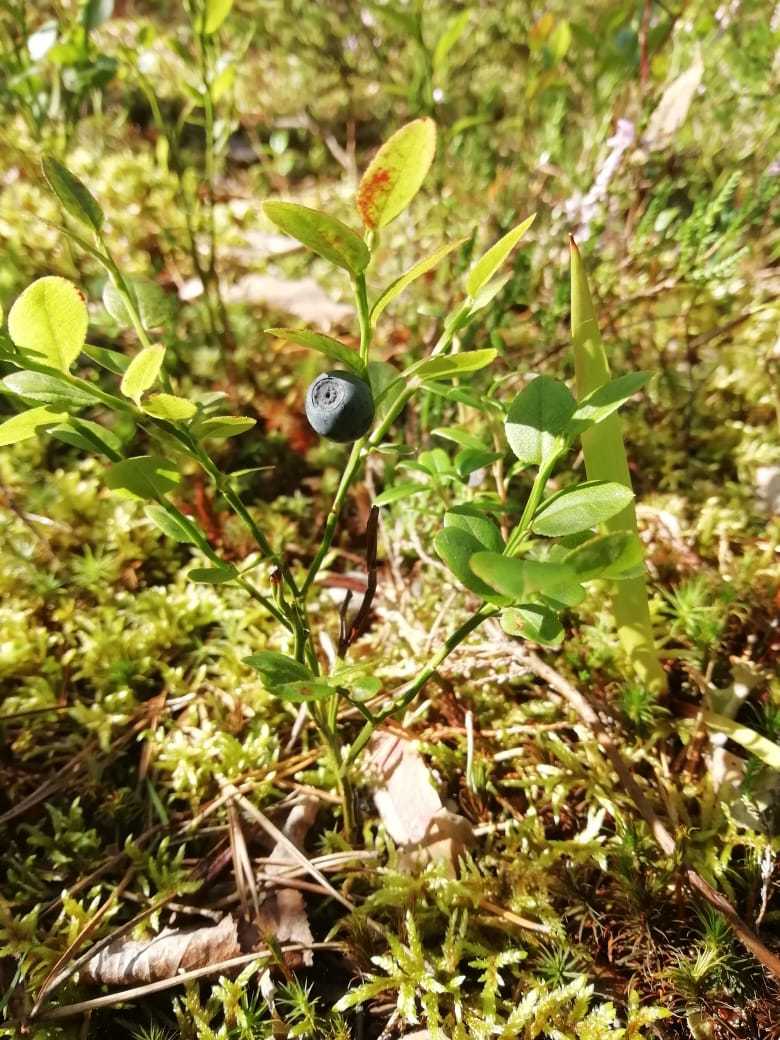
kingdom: Plantae
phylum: Tracheophyta
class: Magnoliopsida
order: Ericales
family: Ericaceae
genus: Vaccinium
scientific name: Vaccinium myrtillus
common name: Bilberry
